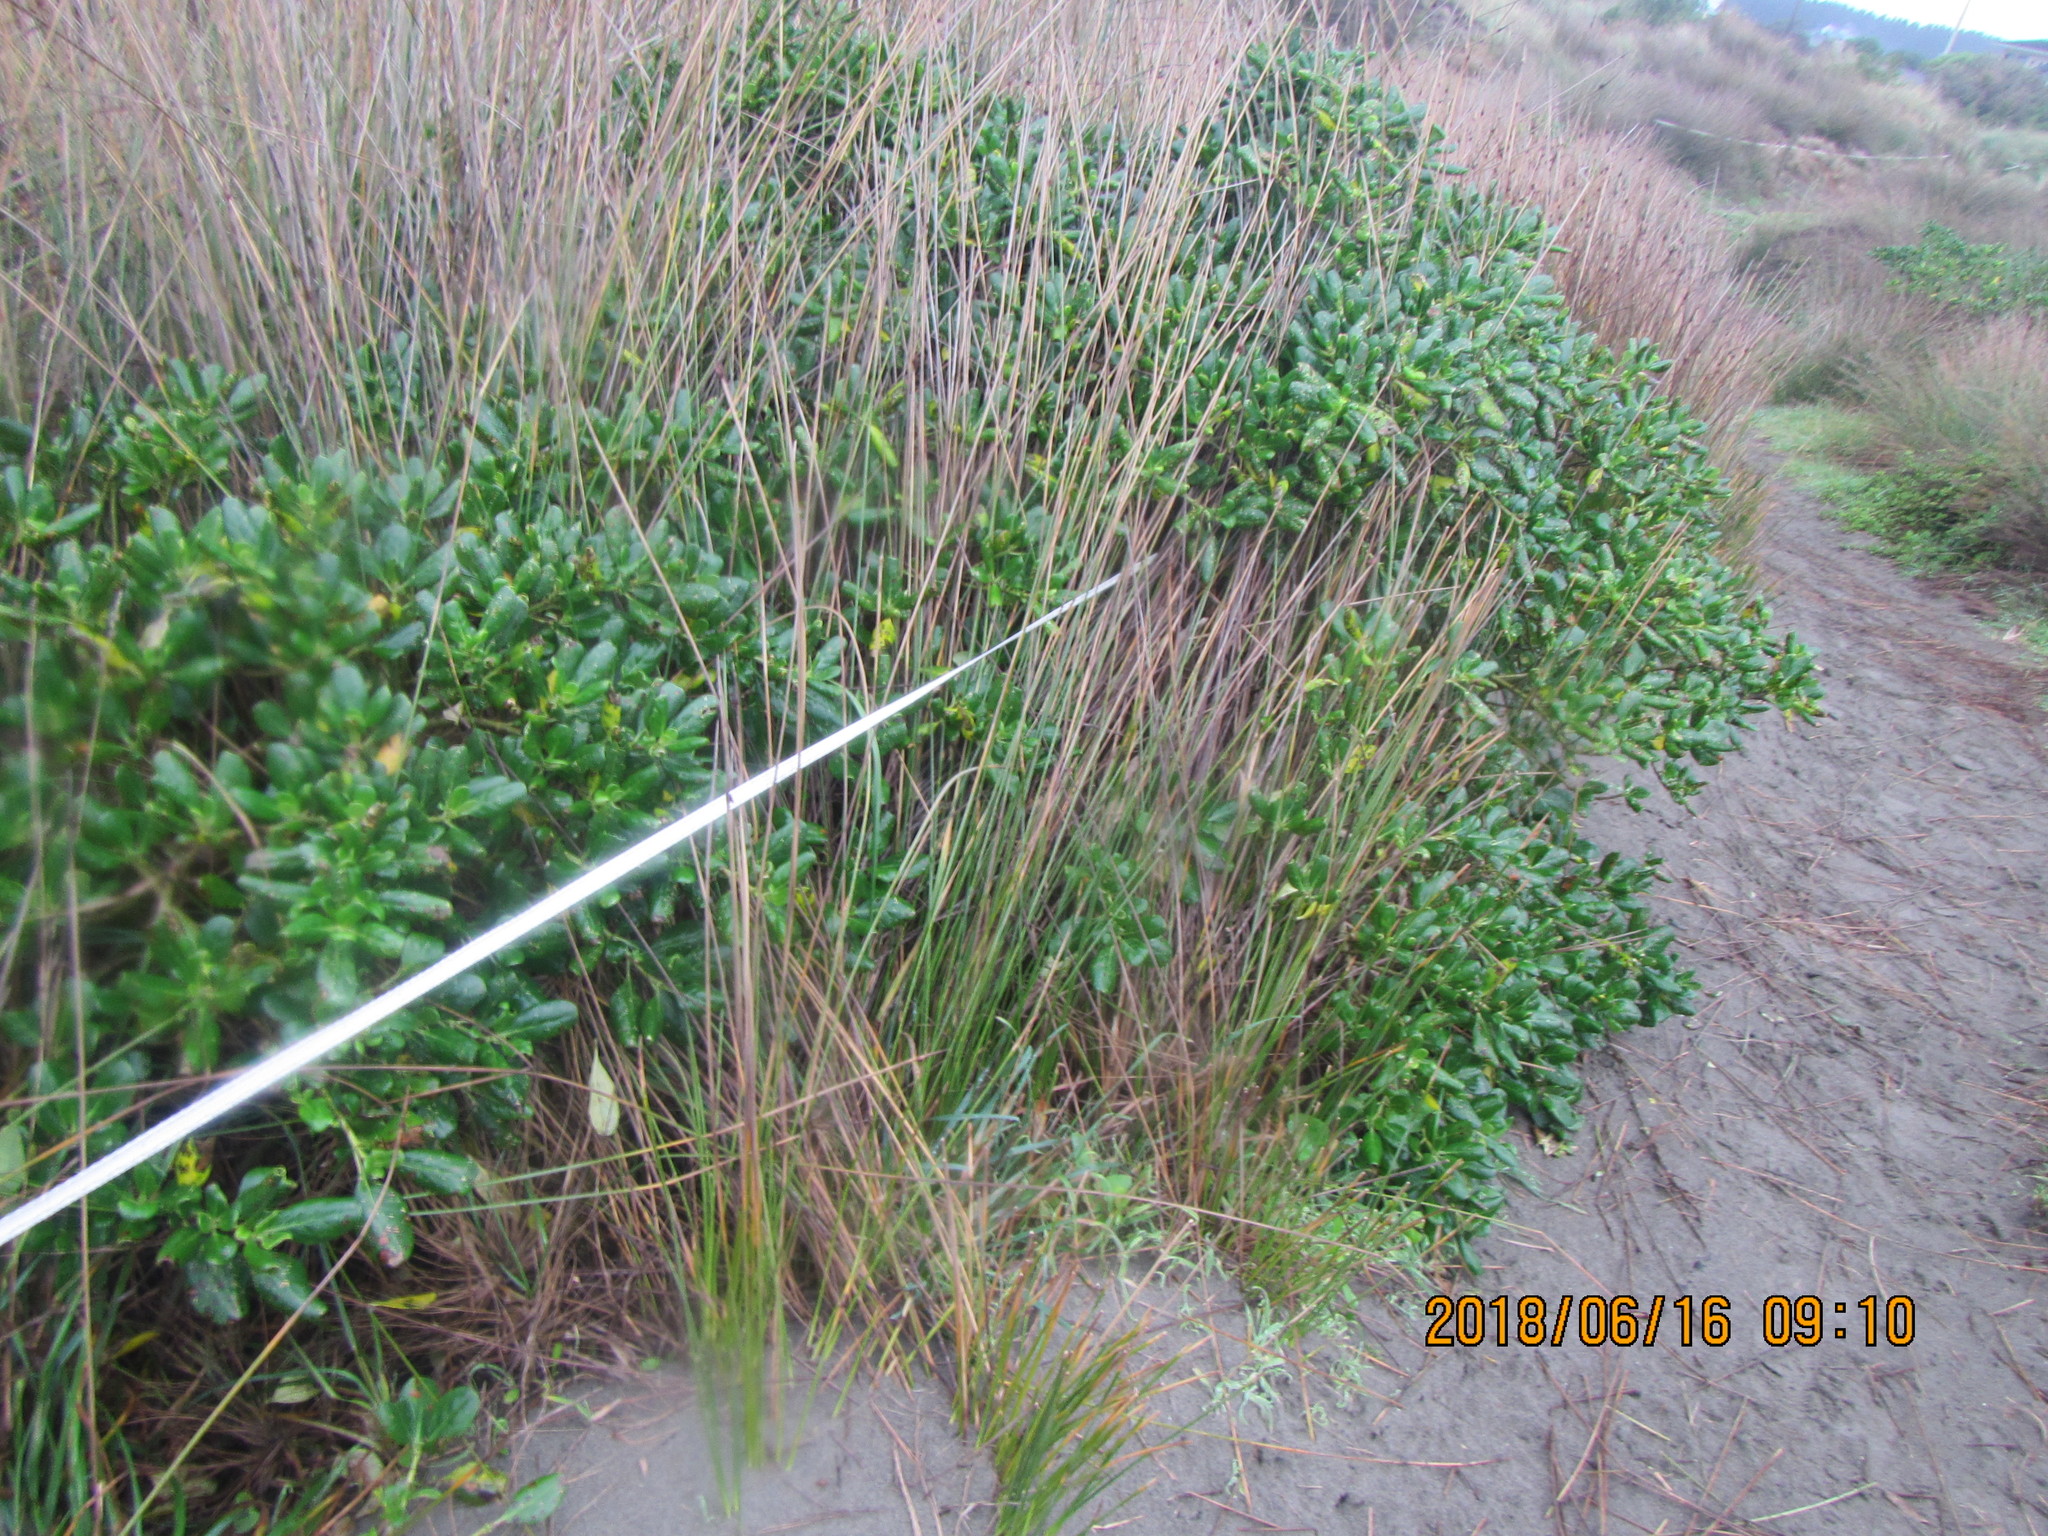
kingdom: Plantae
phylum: Tracheophyta
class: Magnoliopsida
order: Gentianales
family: Rubiaceae
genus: Coprosma
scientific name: Coprosma repens
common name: Tree bedstraw
